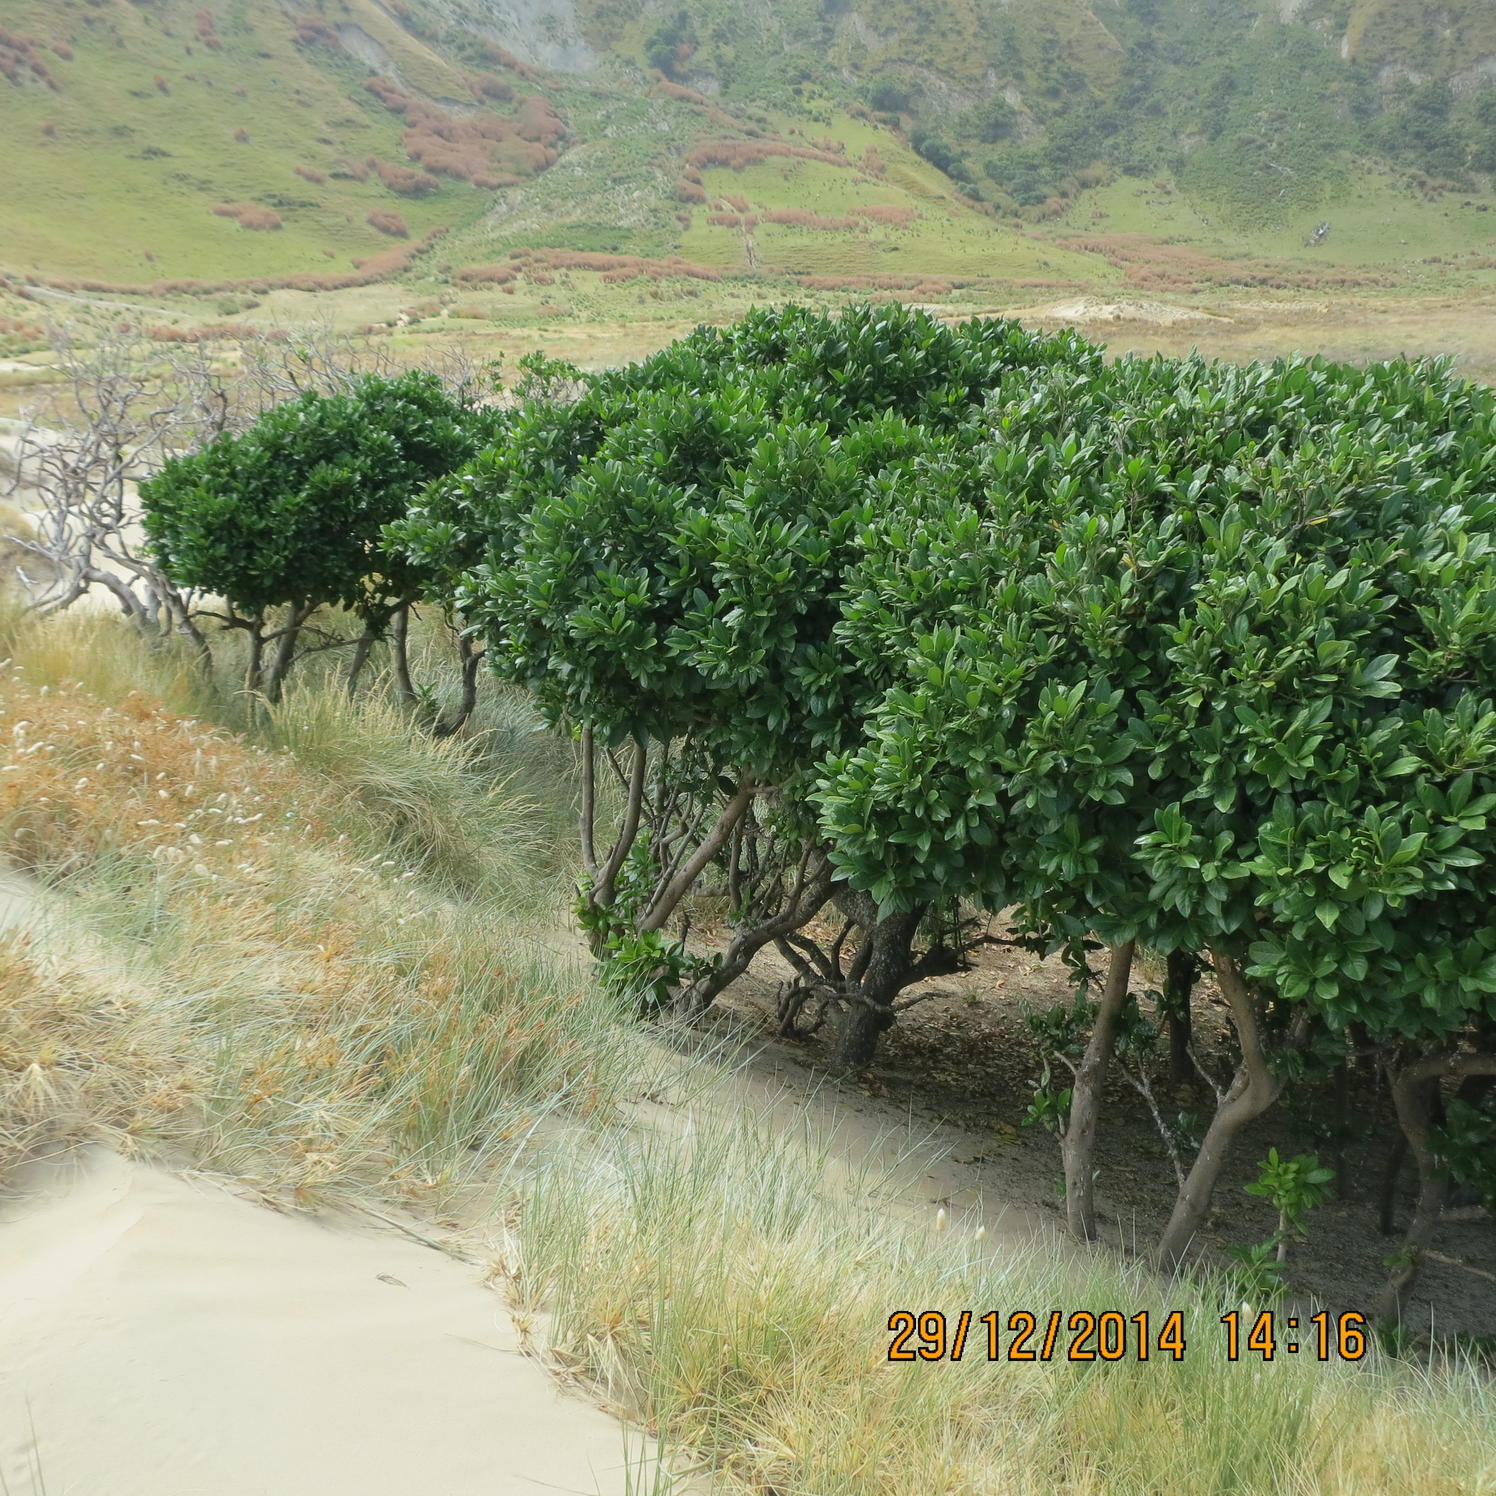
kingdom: Plantae
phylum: Tracheophyta
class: Magnoliopsida
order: Cucurbitales
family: Corynocarpaceae
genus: Corynocarpus
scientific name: Corynocarpus laevigatus
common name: New zealand laurel
